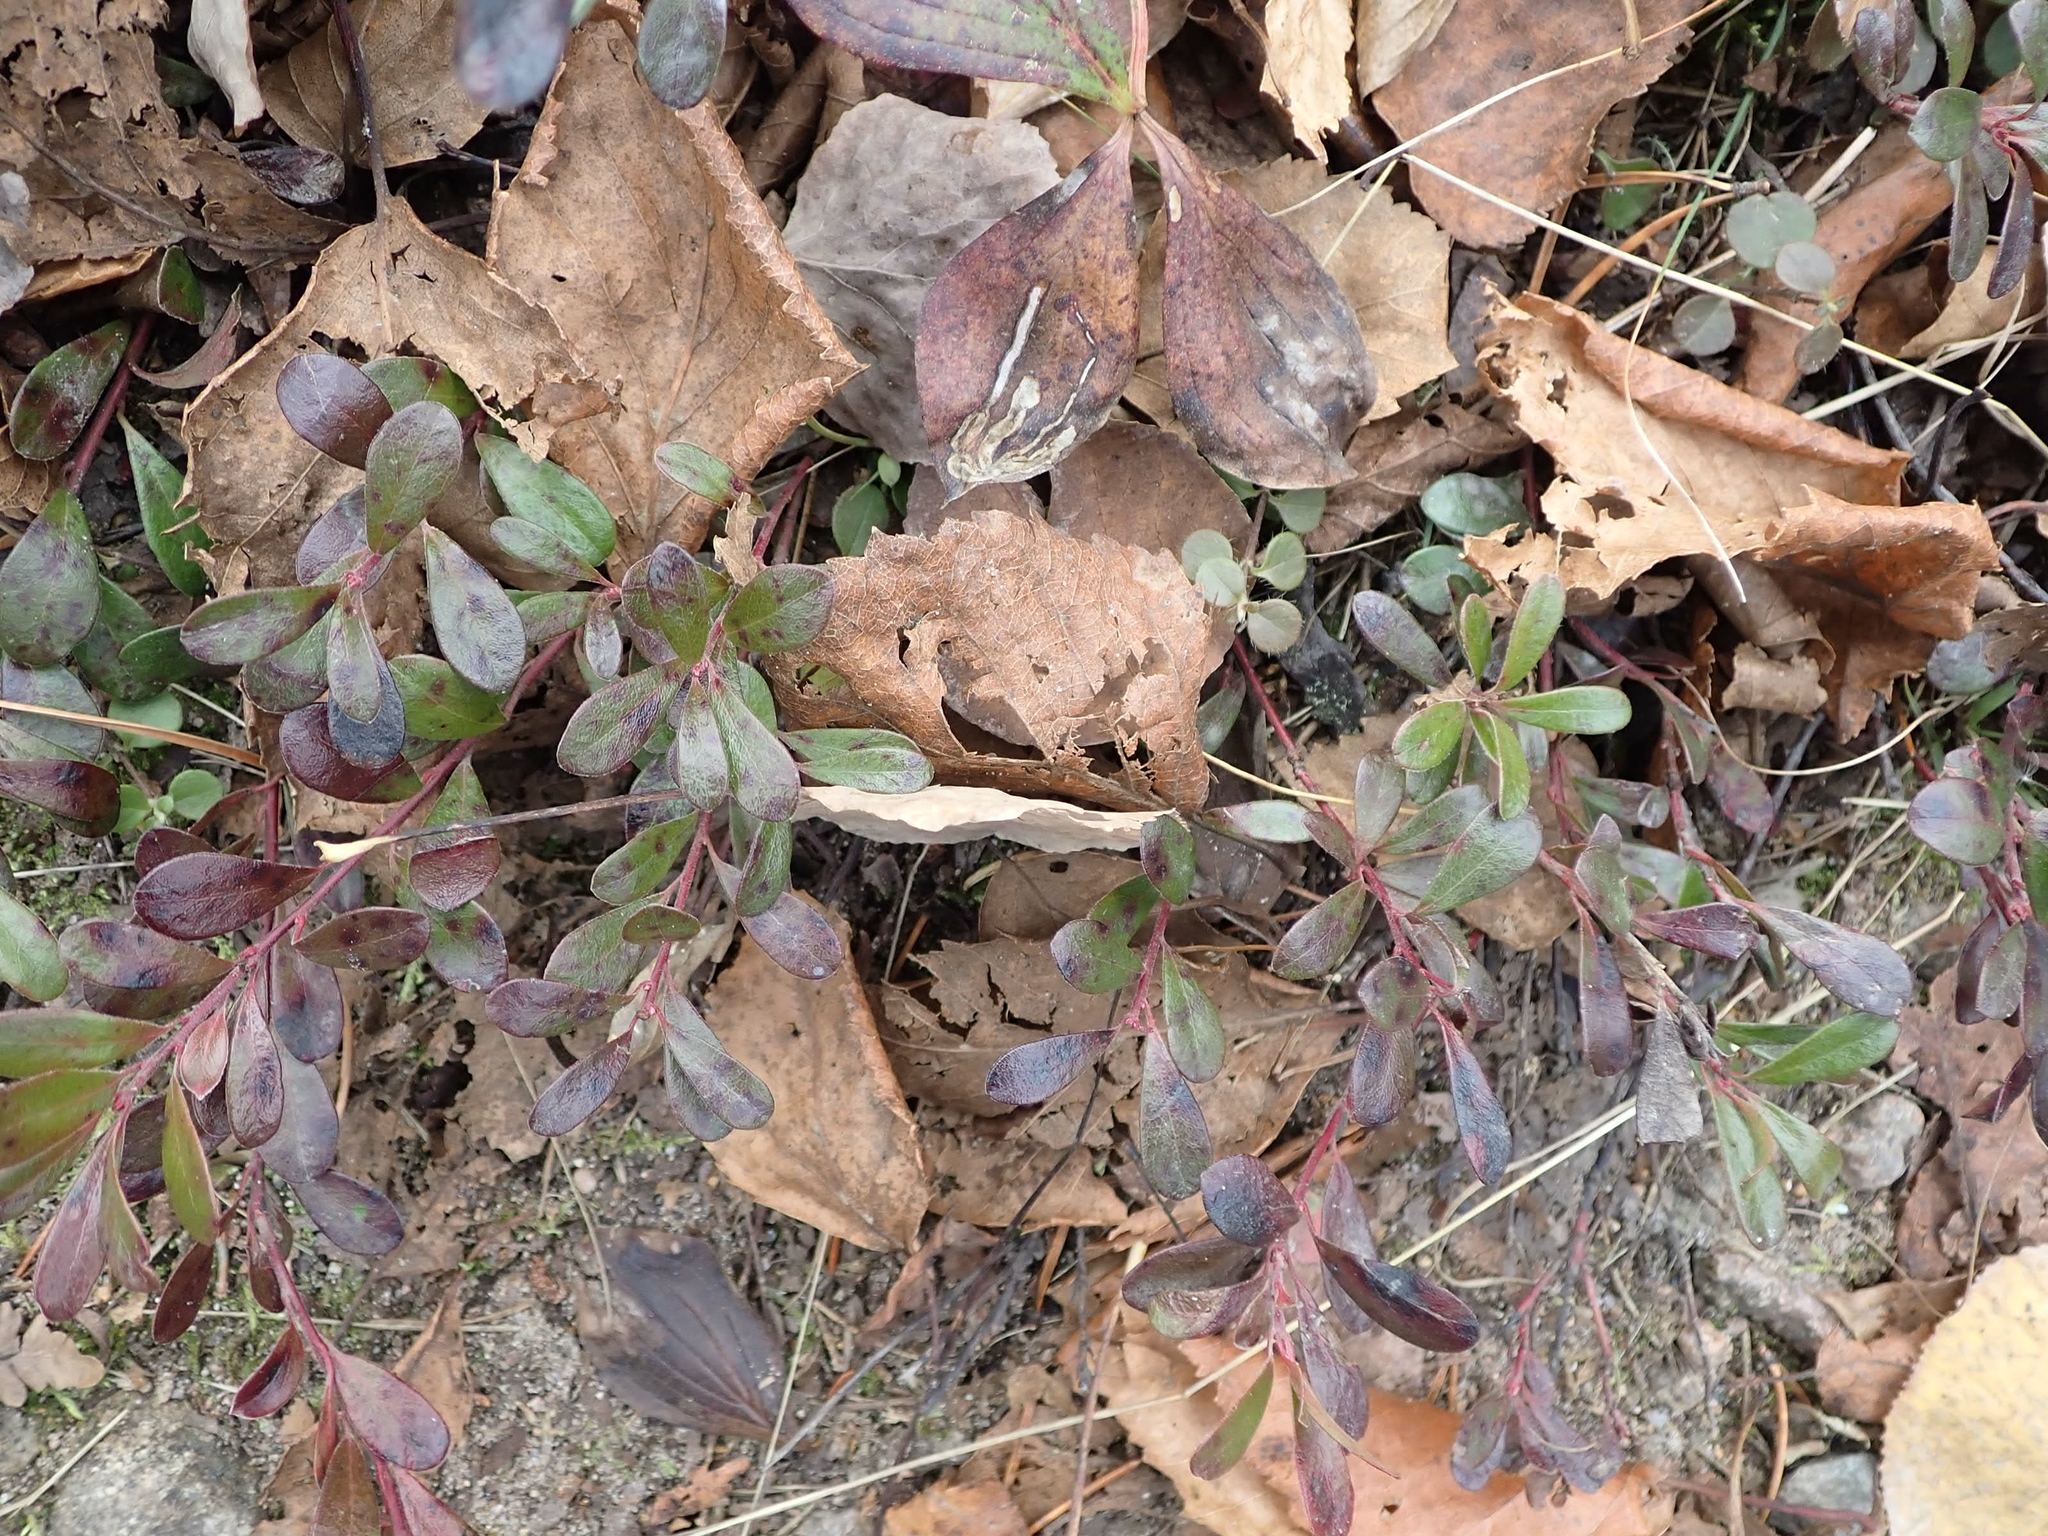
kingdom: Plantae
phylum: Tracheophyta
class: Magnoliopsida
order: Ericales
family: Ericaceae
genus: Arctostaphylos
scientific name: Arctostaphylos uva-ursi
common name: Bearberry
